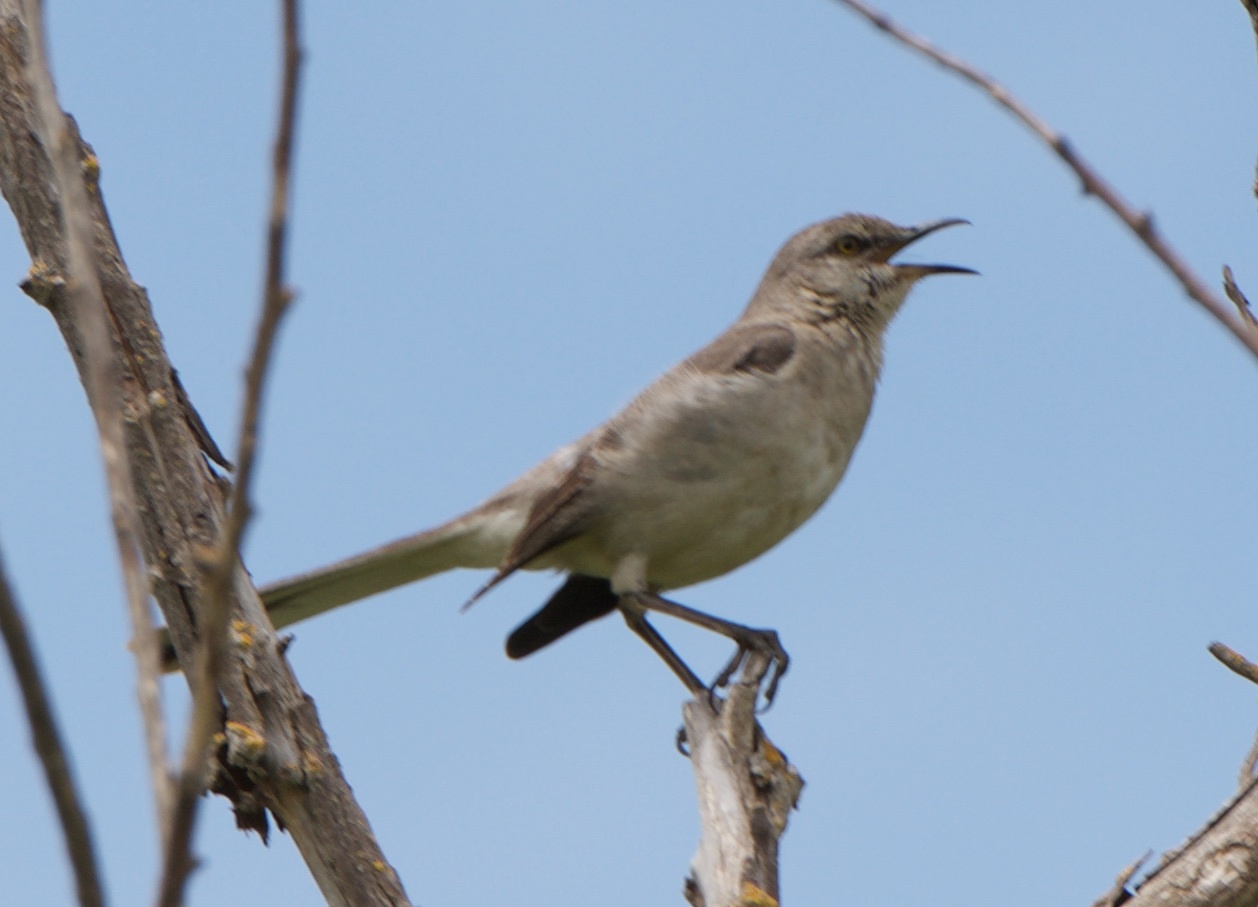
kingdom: Animalia
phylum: Chordata
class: Aves
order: Passeriformes
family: Mimidae
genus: Mimus
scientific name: Mimus polyglottos
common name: Northern mockingbird
